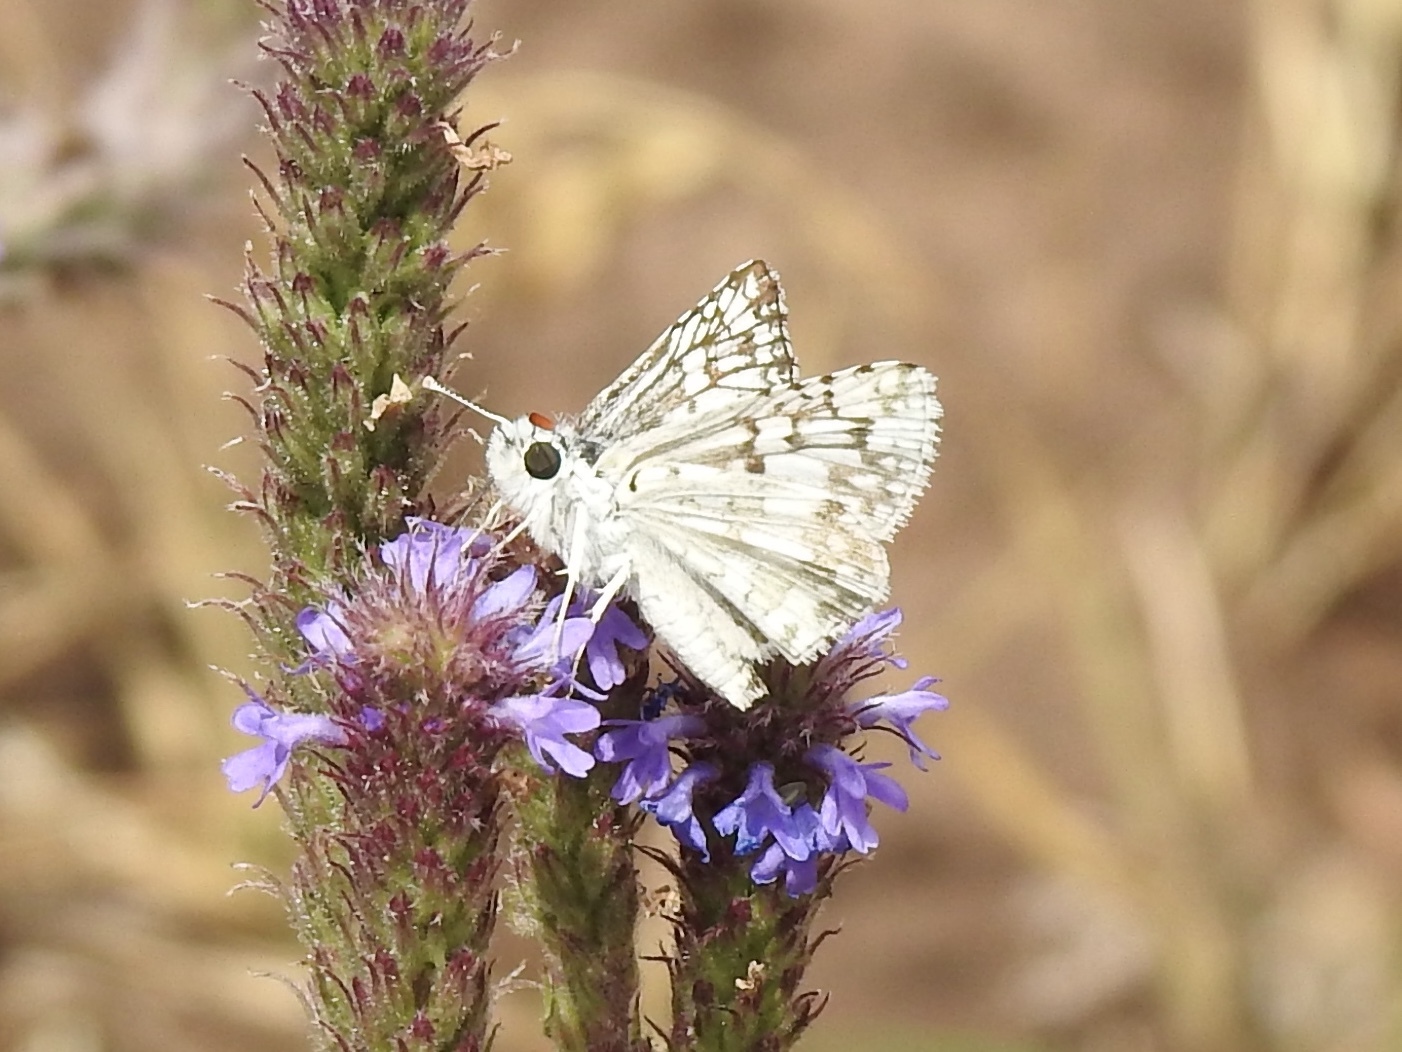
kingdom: Animalia
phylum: Arthropoda
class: Insecta
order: Lepidoptera
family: Hesperiidae
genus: Burnsius
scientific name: Burnsius
